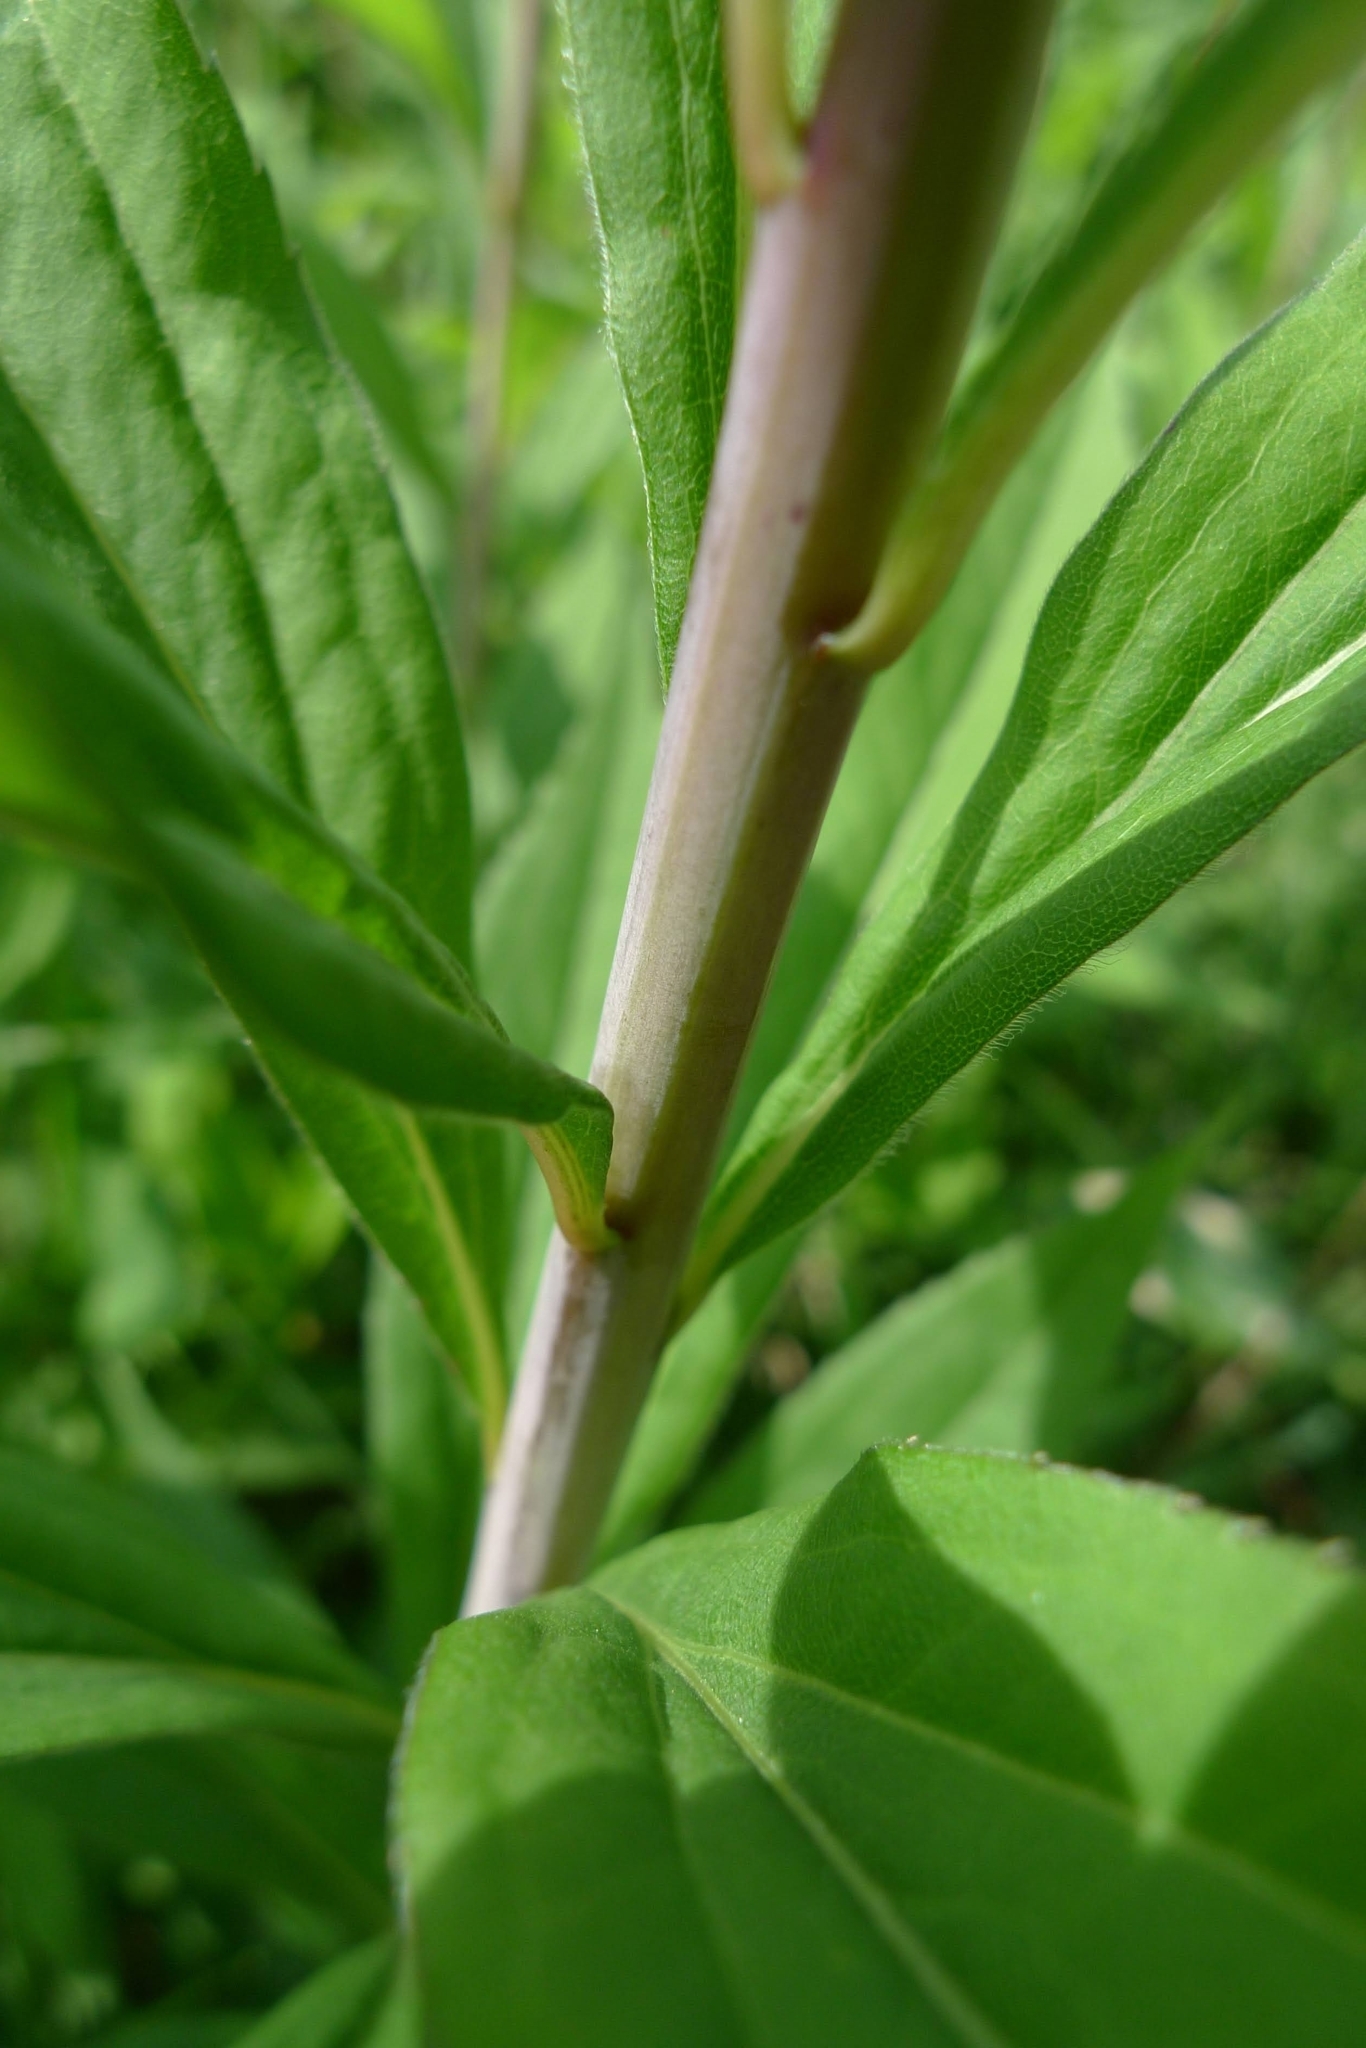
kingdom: Plantae
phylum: Tracheophyta
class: Magnoliopsida
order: Asterales
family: Asteraceae
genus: Solidago
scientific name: Solidago gigantea
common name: Giant goldenrod
